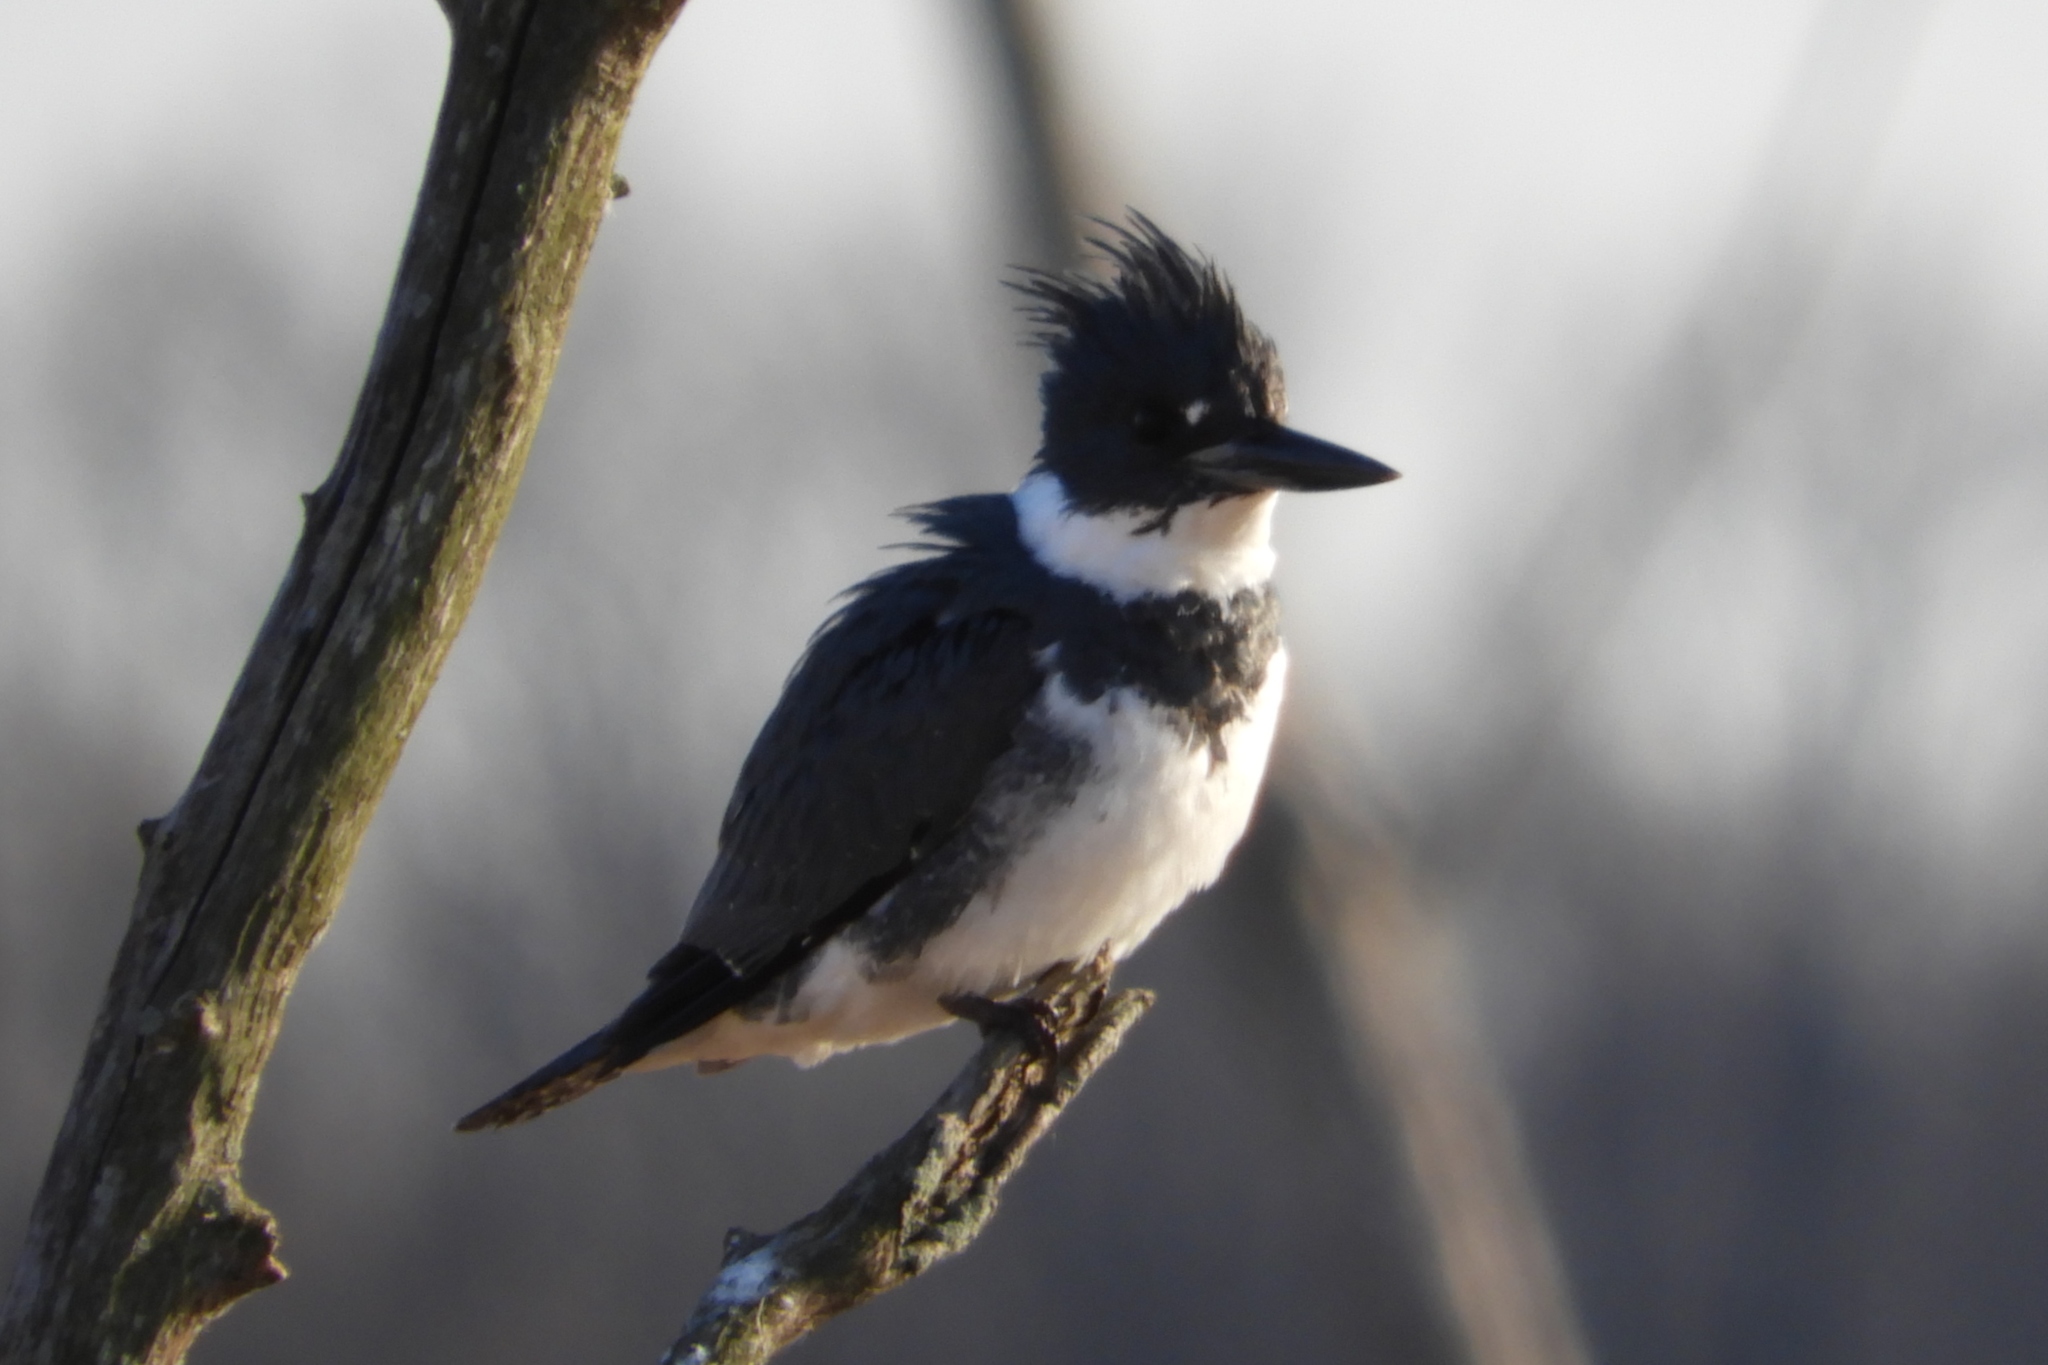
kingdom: Animalia
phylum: Chordata
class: Aves
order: Coraciiformes
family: Alcedinidae
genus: Megaceryle
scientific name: Megaceryle alcyon
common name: Belted kingfisher
